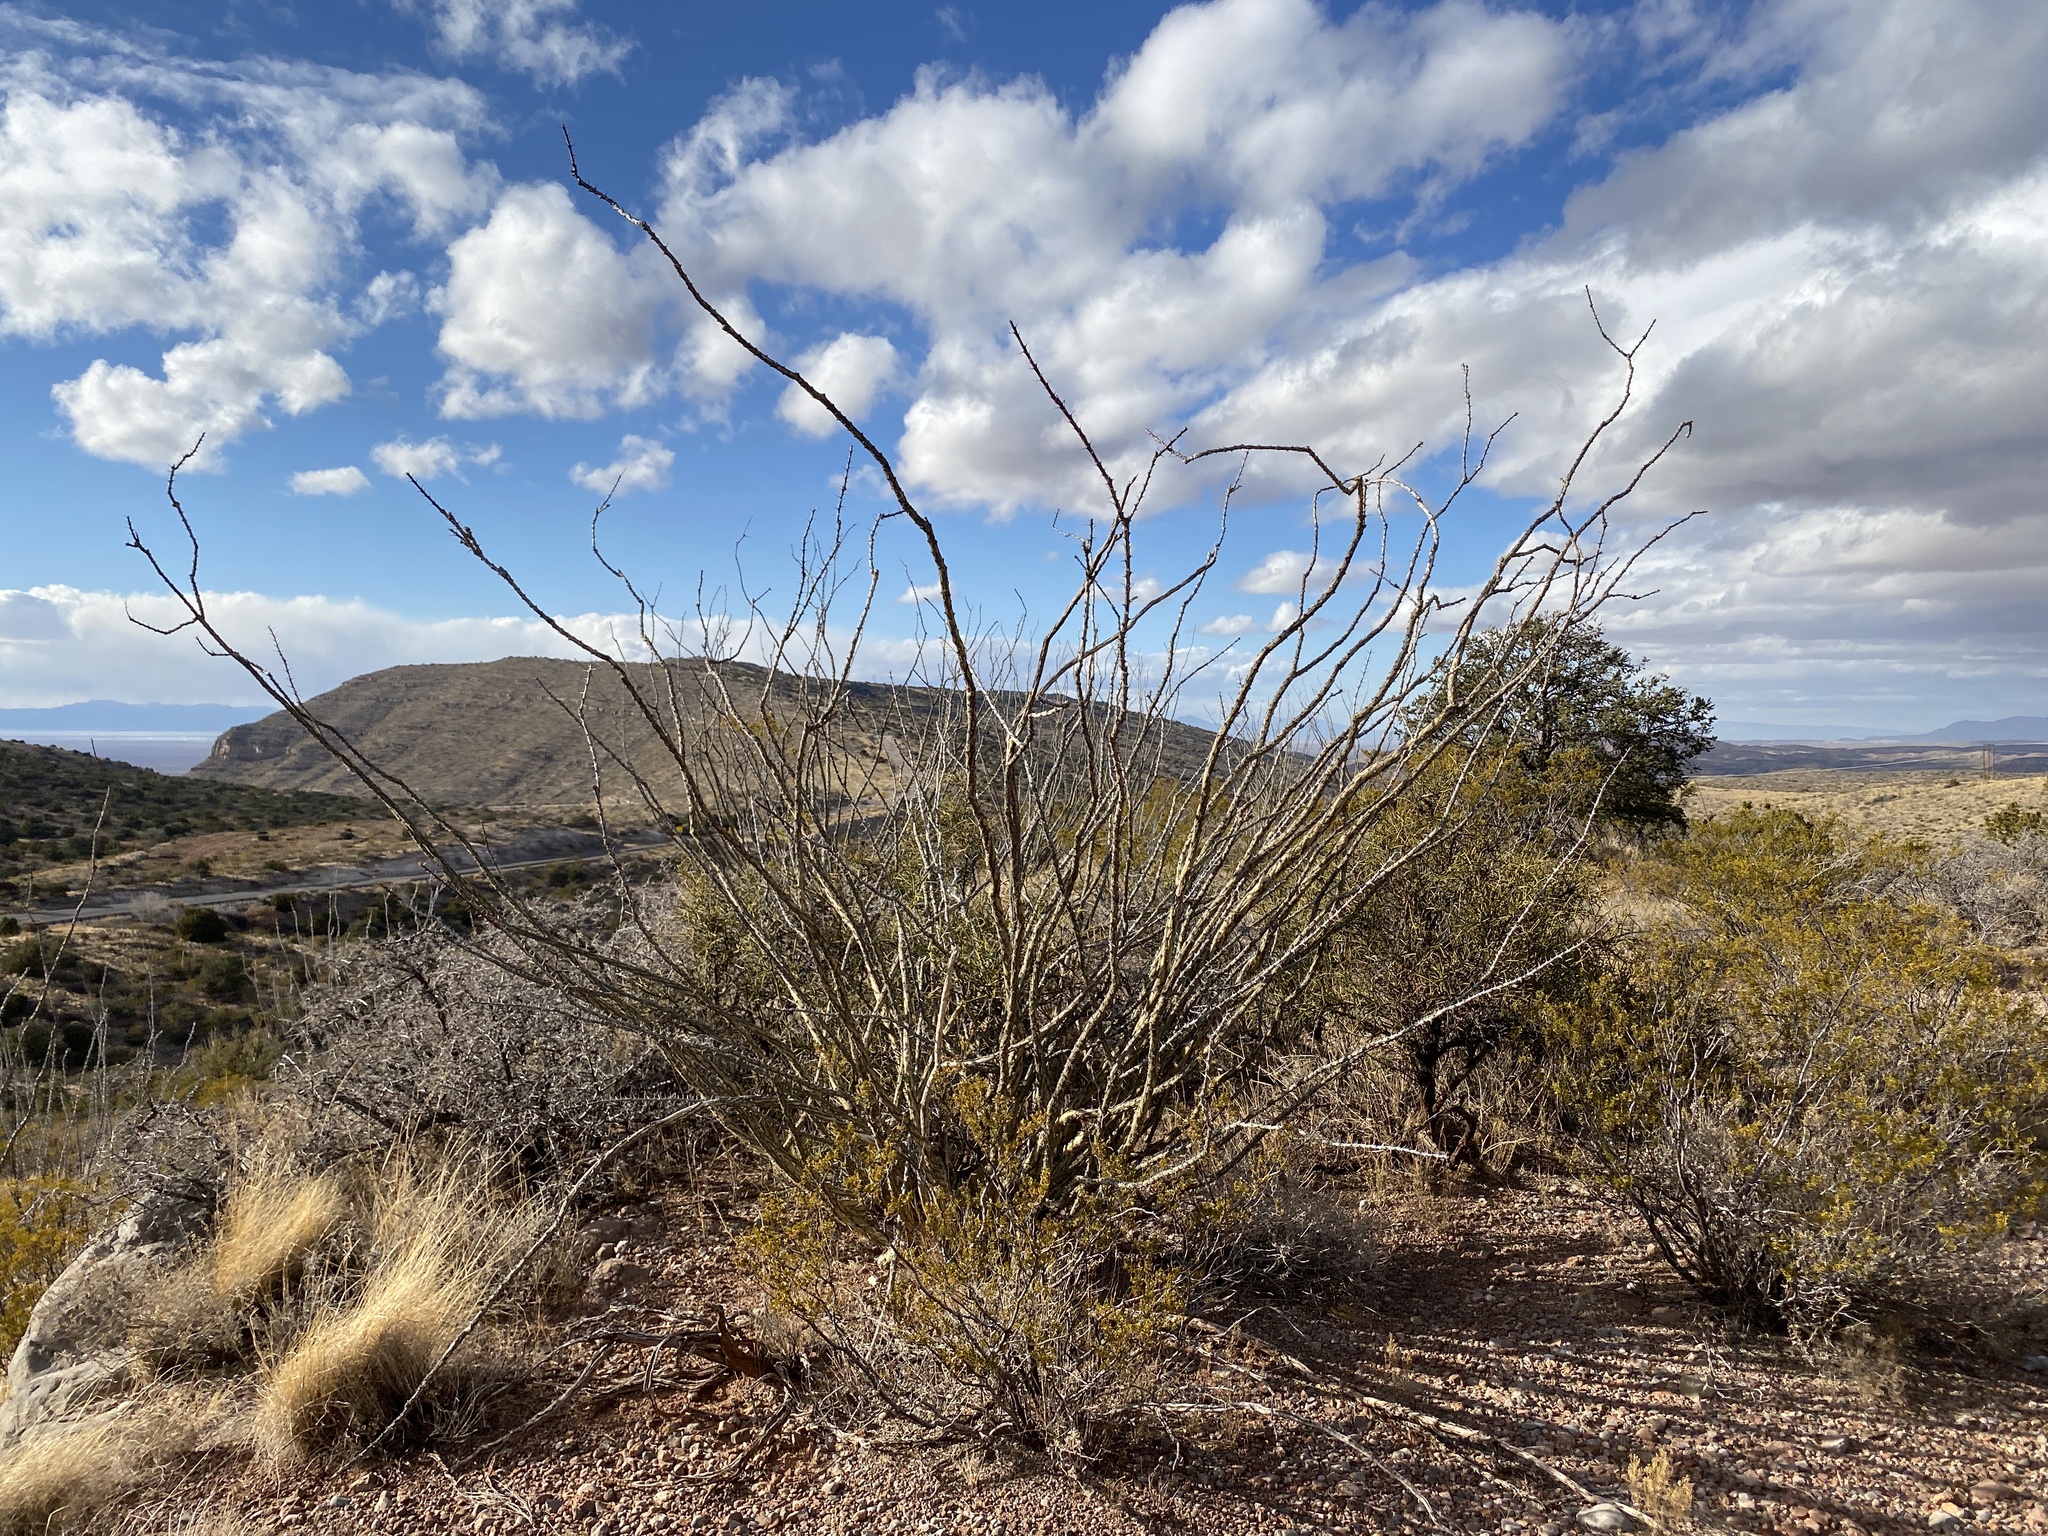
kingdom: Plantae
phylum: Tracheophyta
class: Magnoliopsida
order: Ericales
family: Fouquieriaceae
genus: Fouquieria
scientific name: Fouquieria splendens
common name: Vine-cactus
